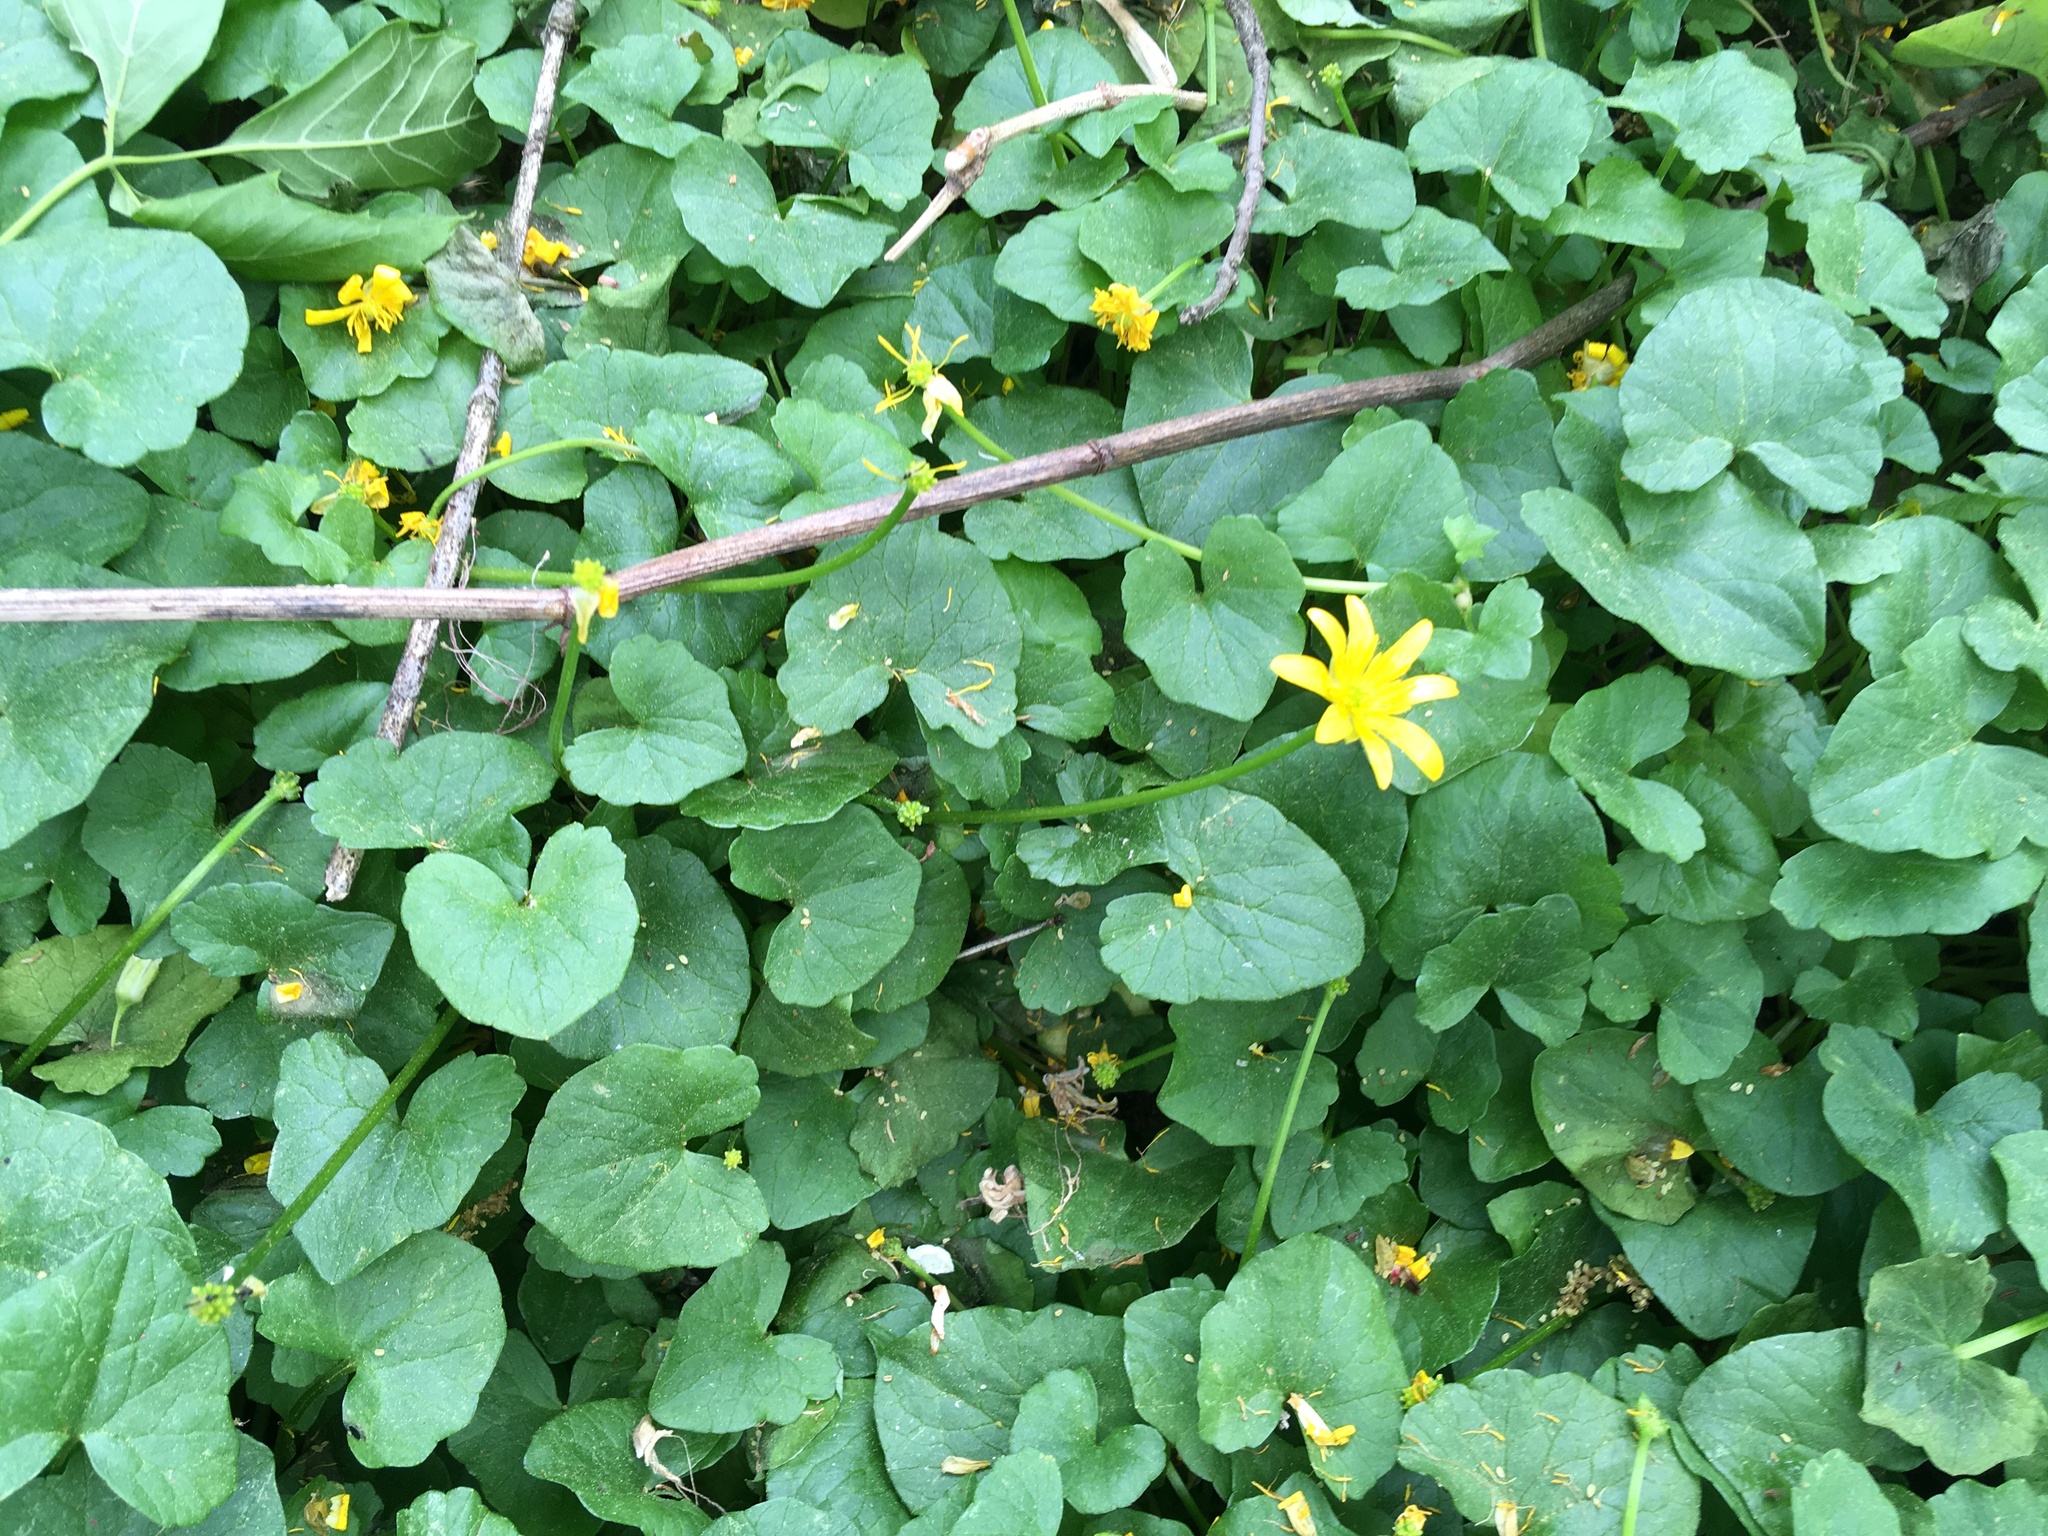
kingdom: Plantae
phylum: Tracheophyta
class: Magnoliopsida
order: Ranunculales
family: Ranunculaceae
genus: Ficaria
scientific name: Ficaria verna
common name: Lesser celandine
